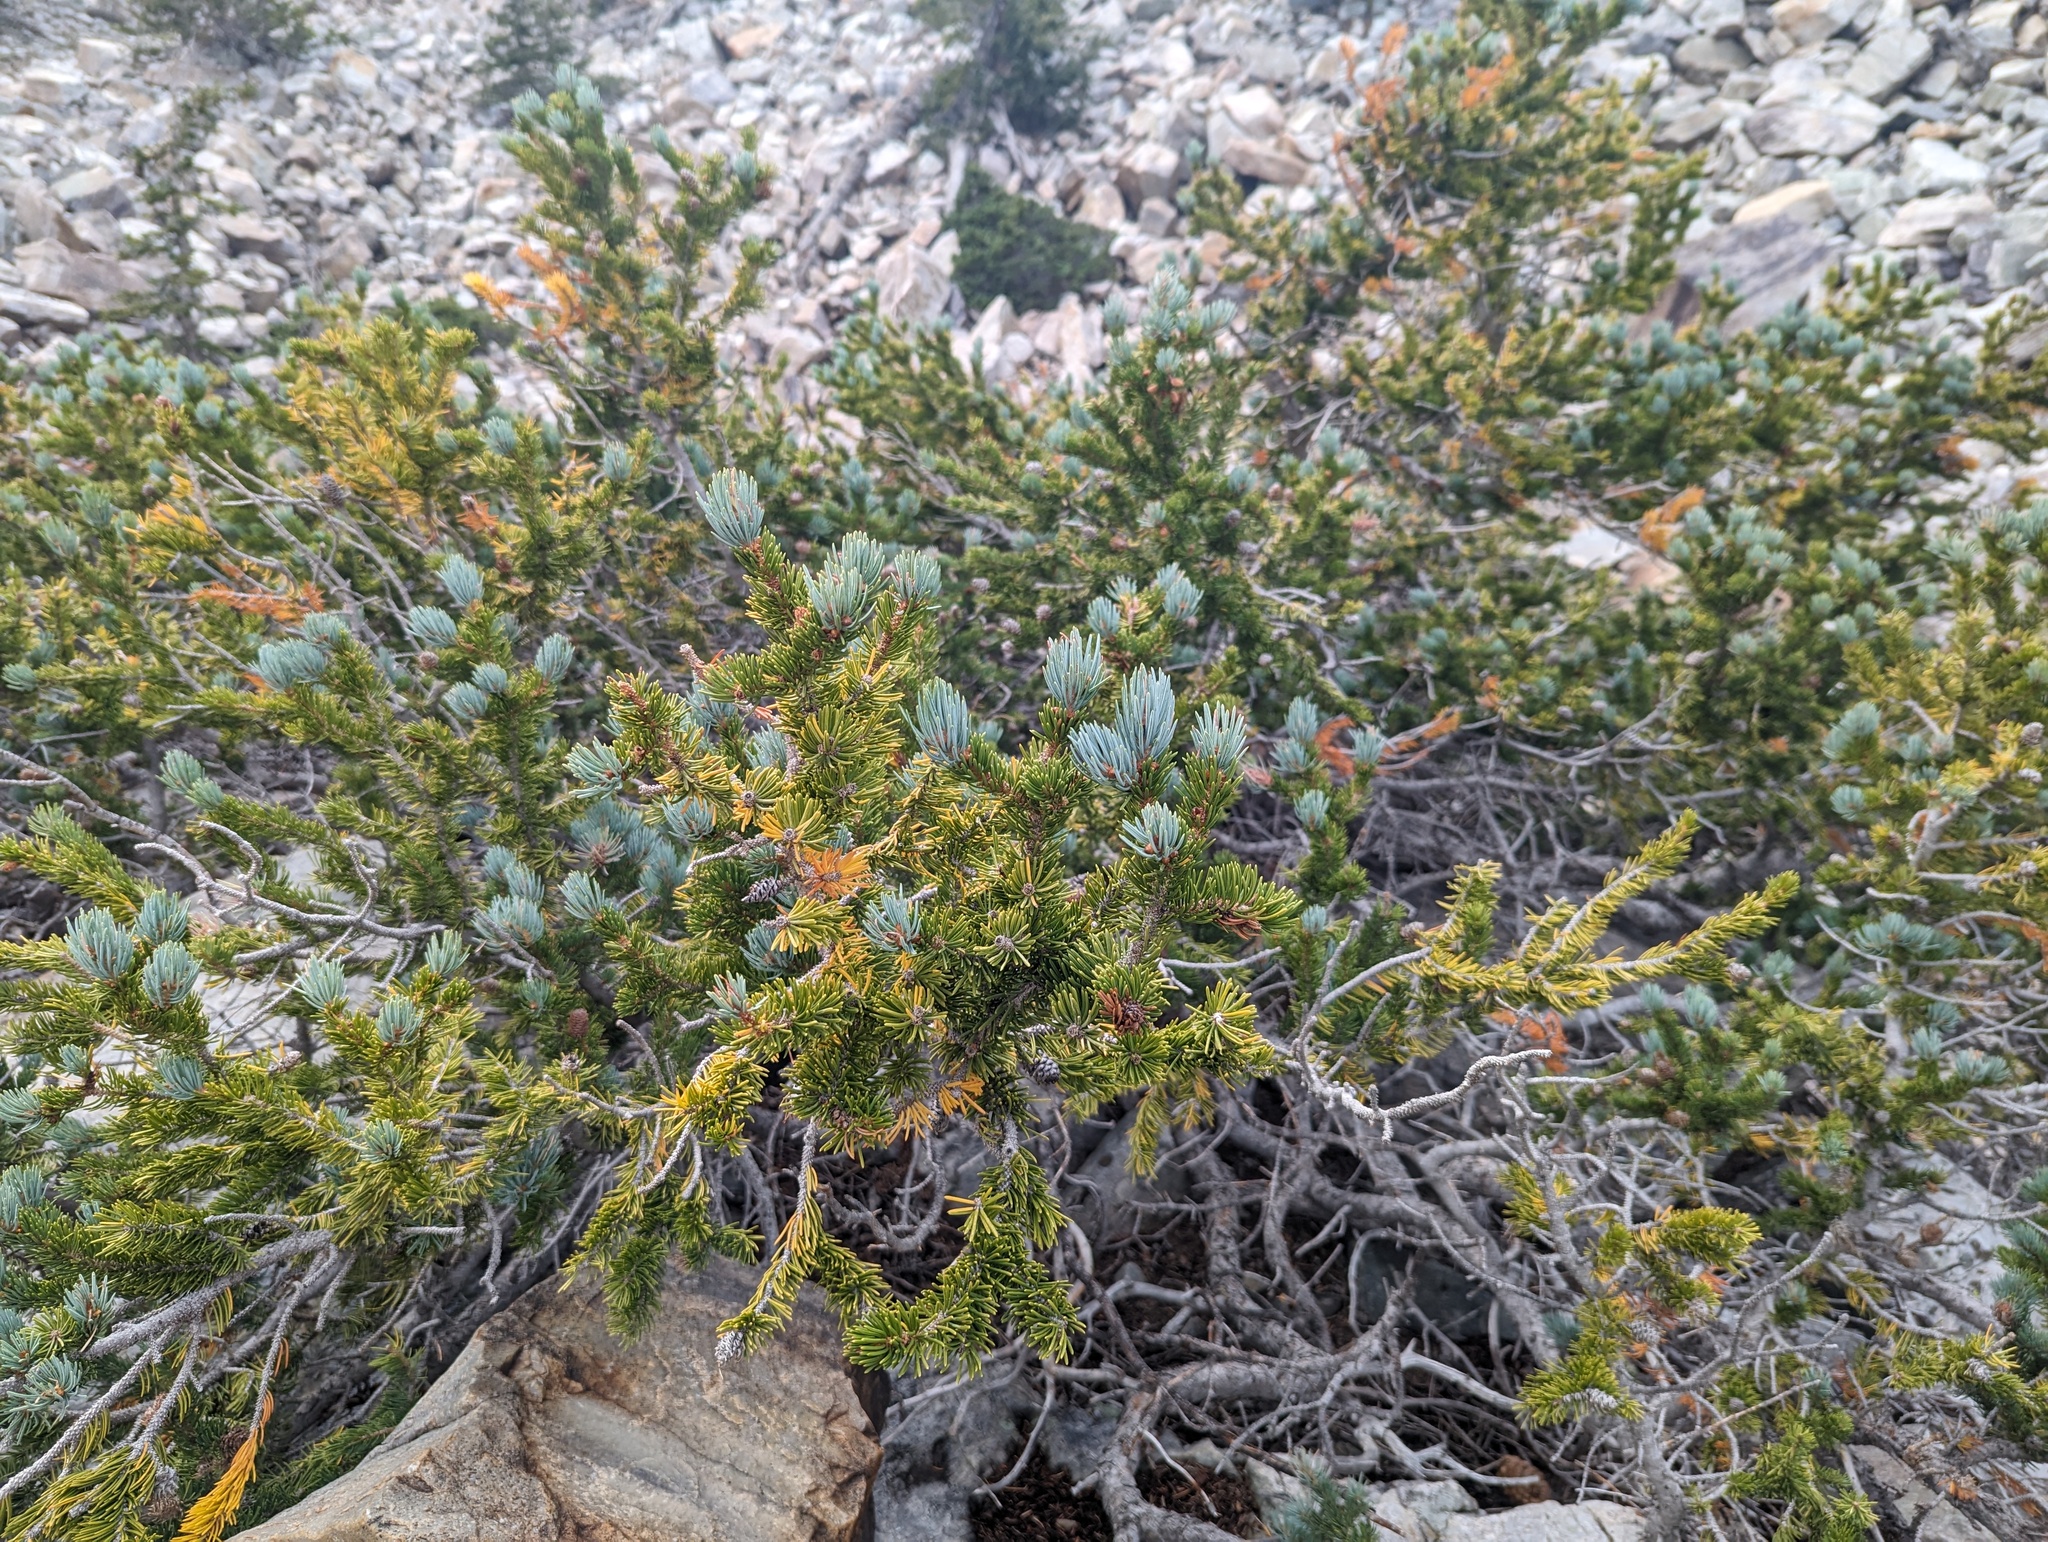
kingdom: Plantae
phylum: Tracheophyta
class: Pinopsida
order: Pinales
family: Pinaceae
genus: Picea
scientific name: Picea engelmannii
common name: Engelmann spruce
